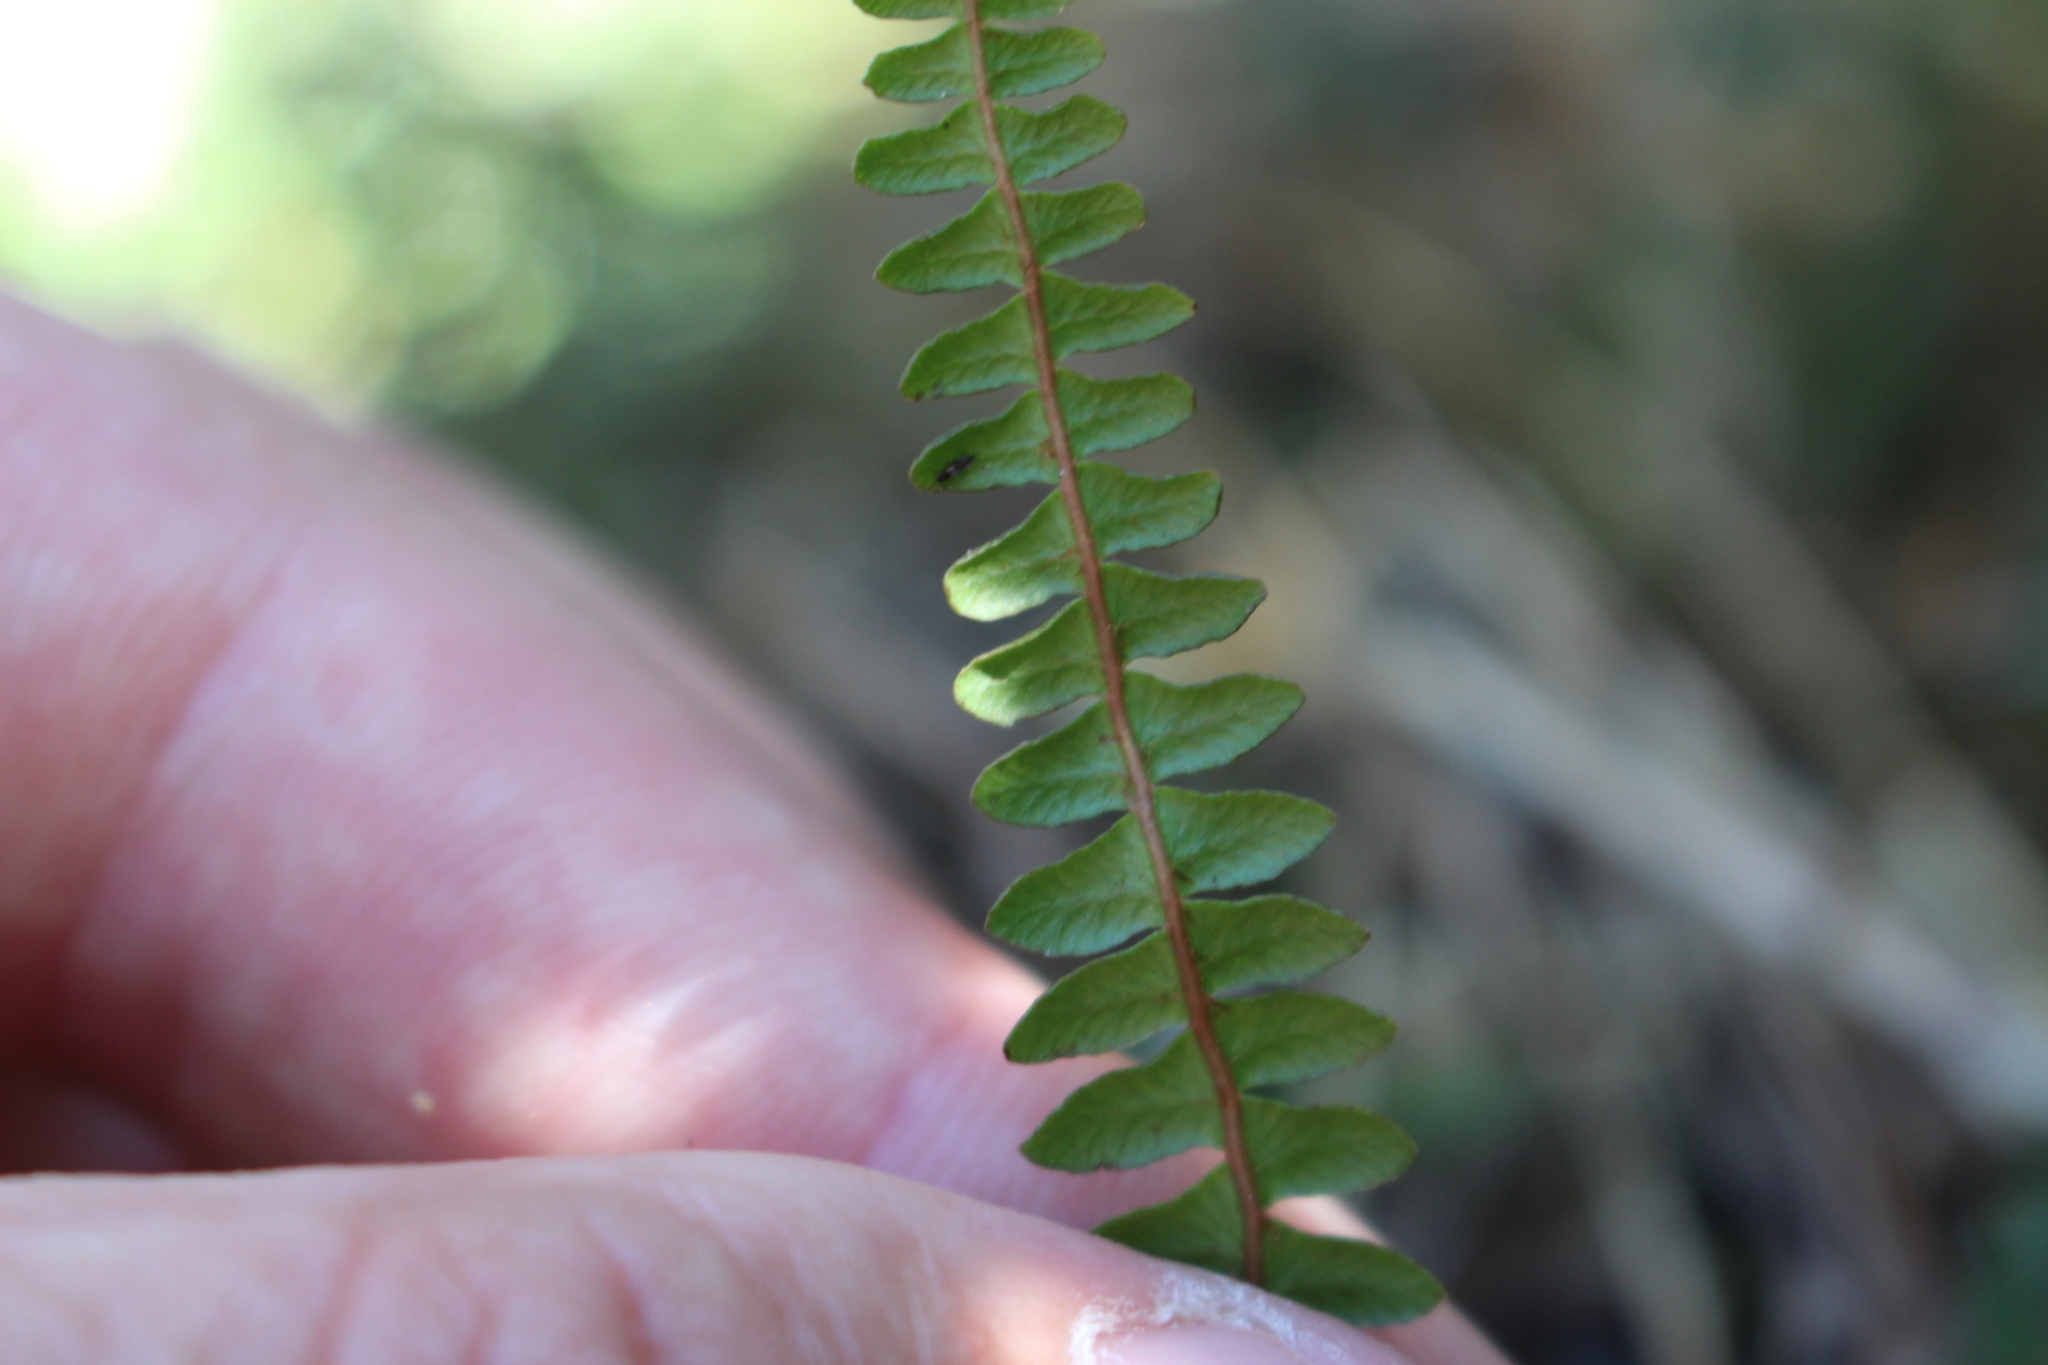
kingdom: Plantae
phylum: Tracheophyta
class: Polypodiopsida
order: Polypodiales
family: Blechnaceae
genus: Austroblechnum
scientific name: Austroblechnum penna-marina
